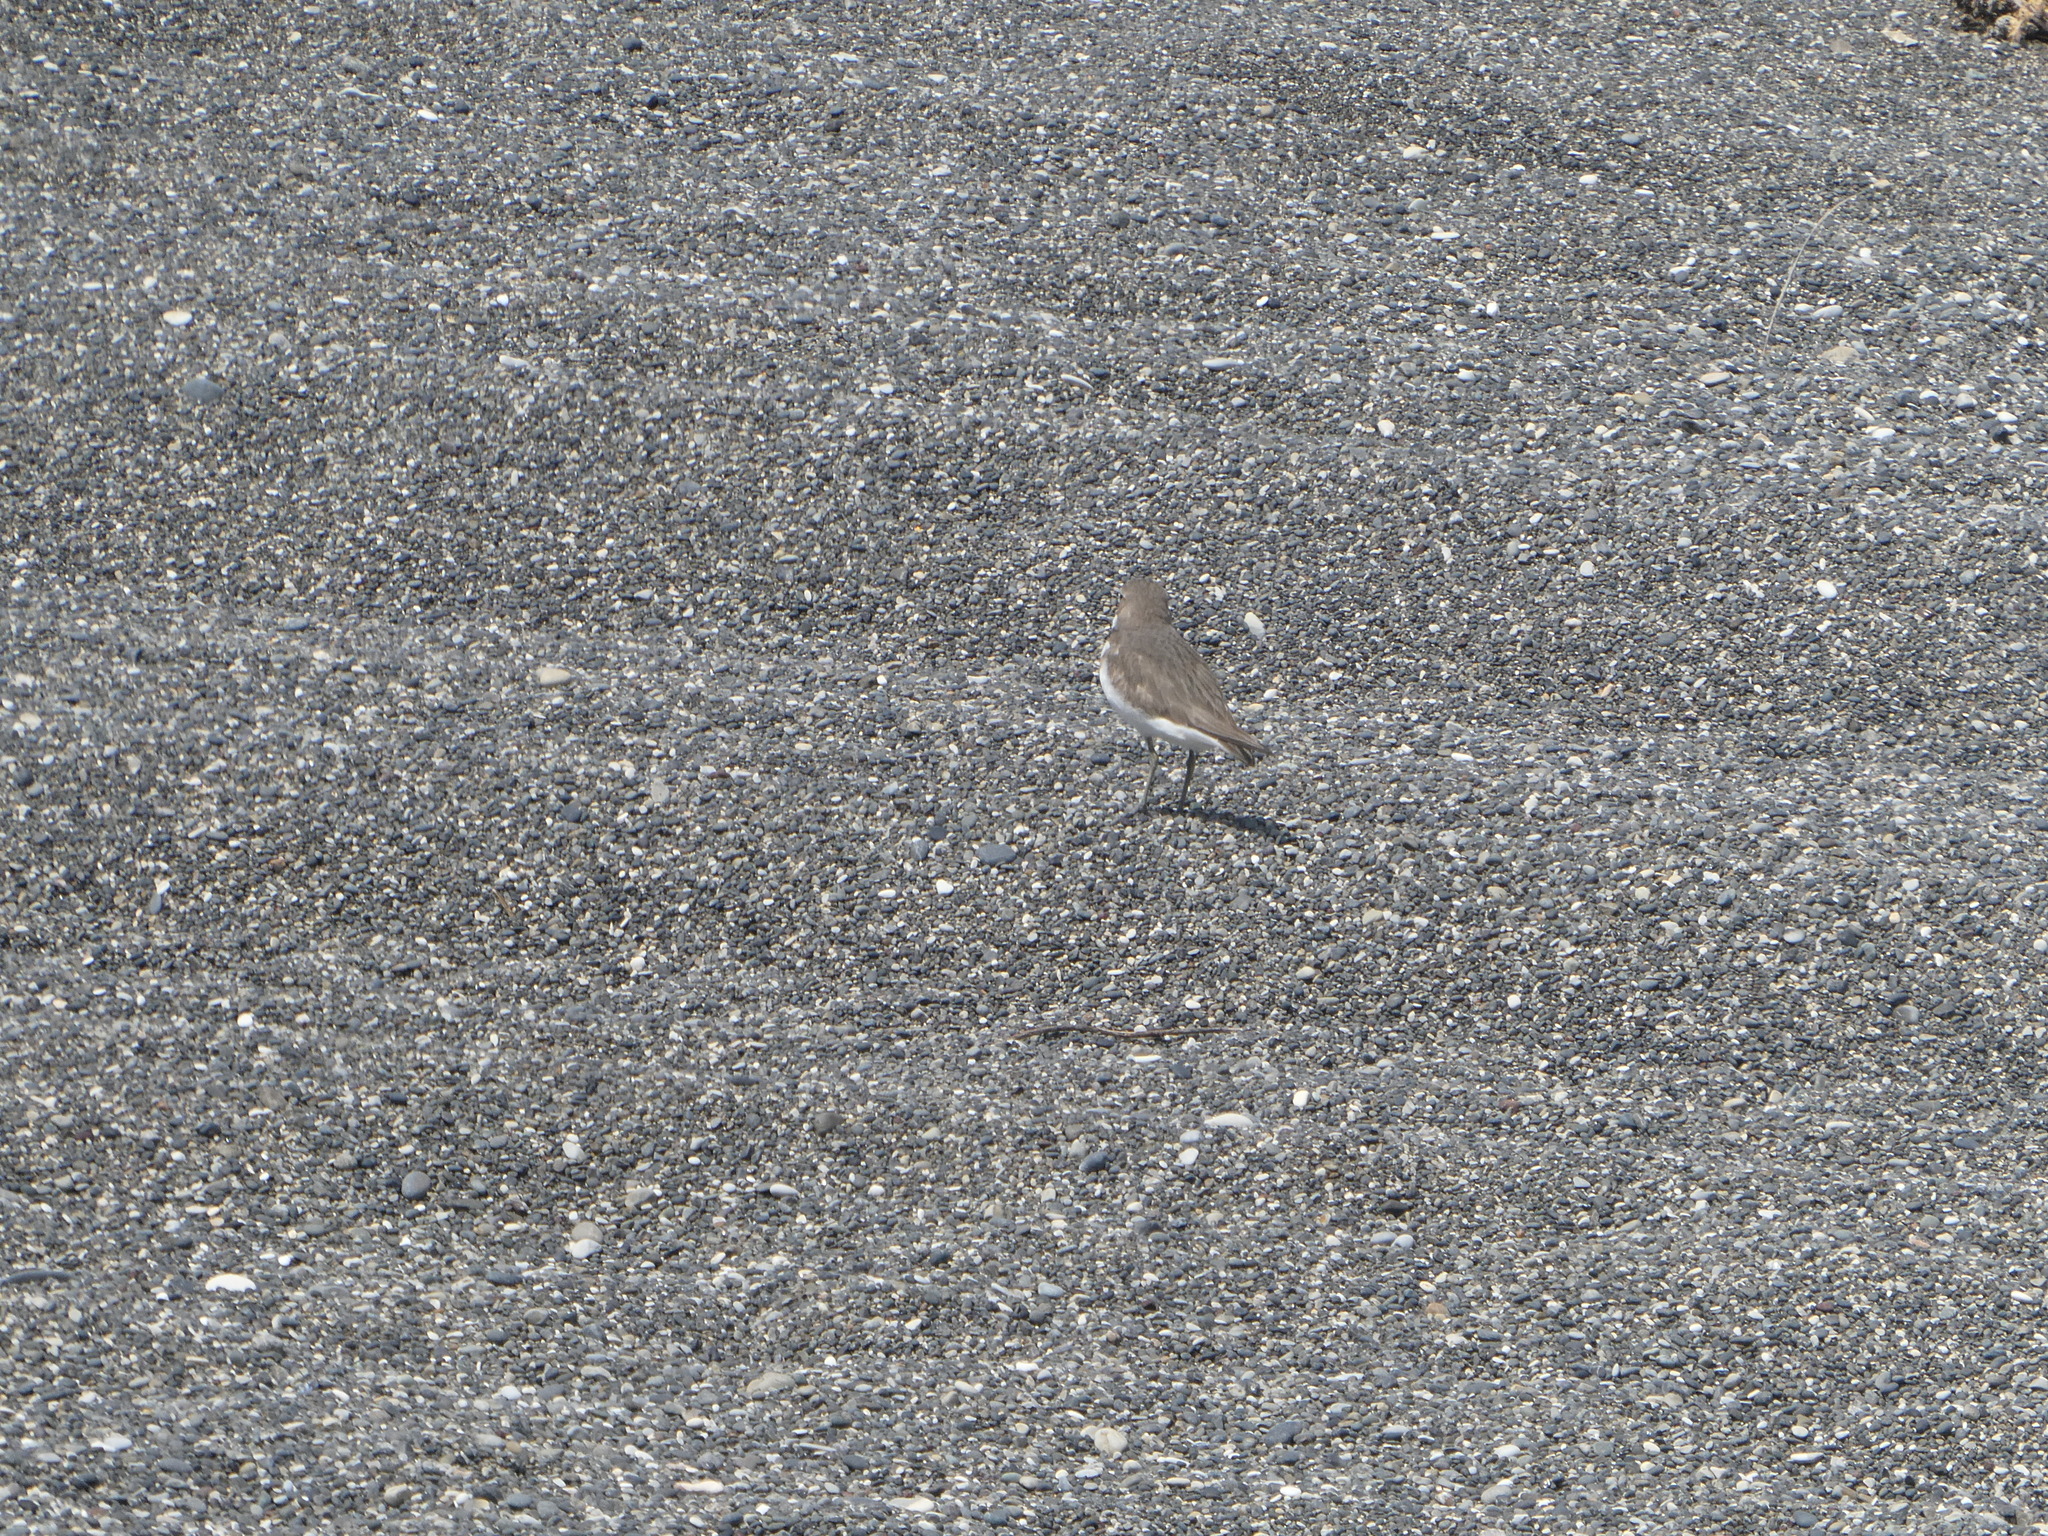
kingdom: Animalia
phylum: Chordata
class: Aves
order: Charadriiformes
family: Charadriidae
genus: Anarhynchus
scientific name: Anarhynchus
